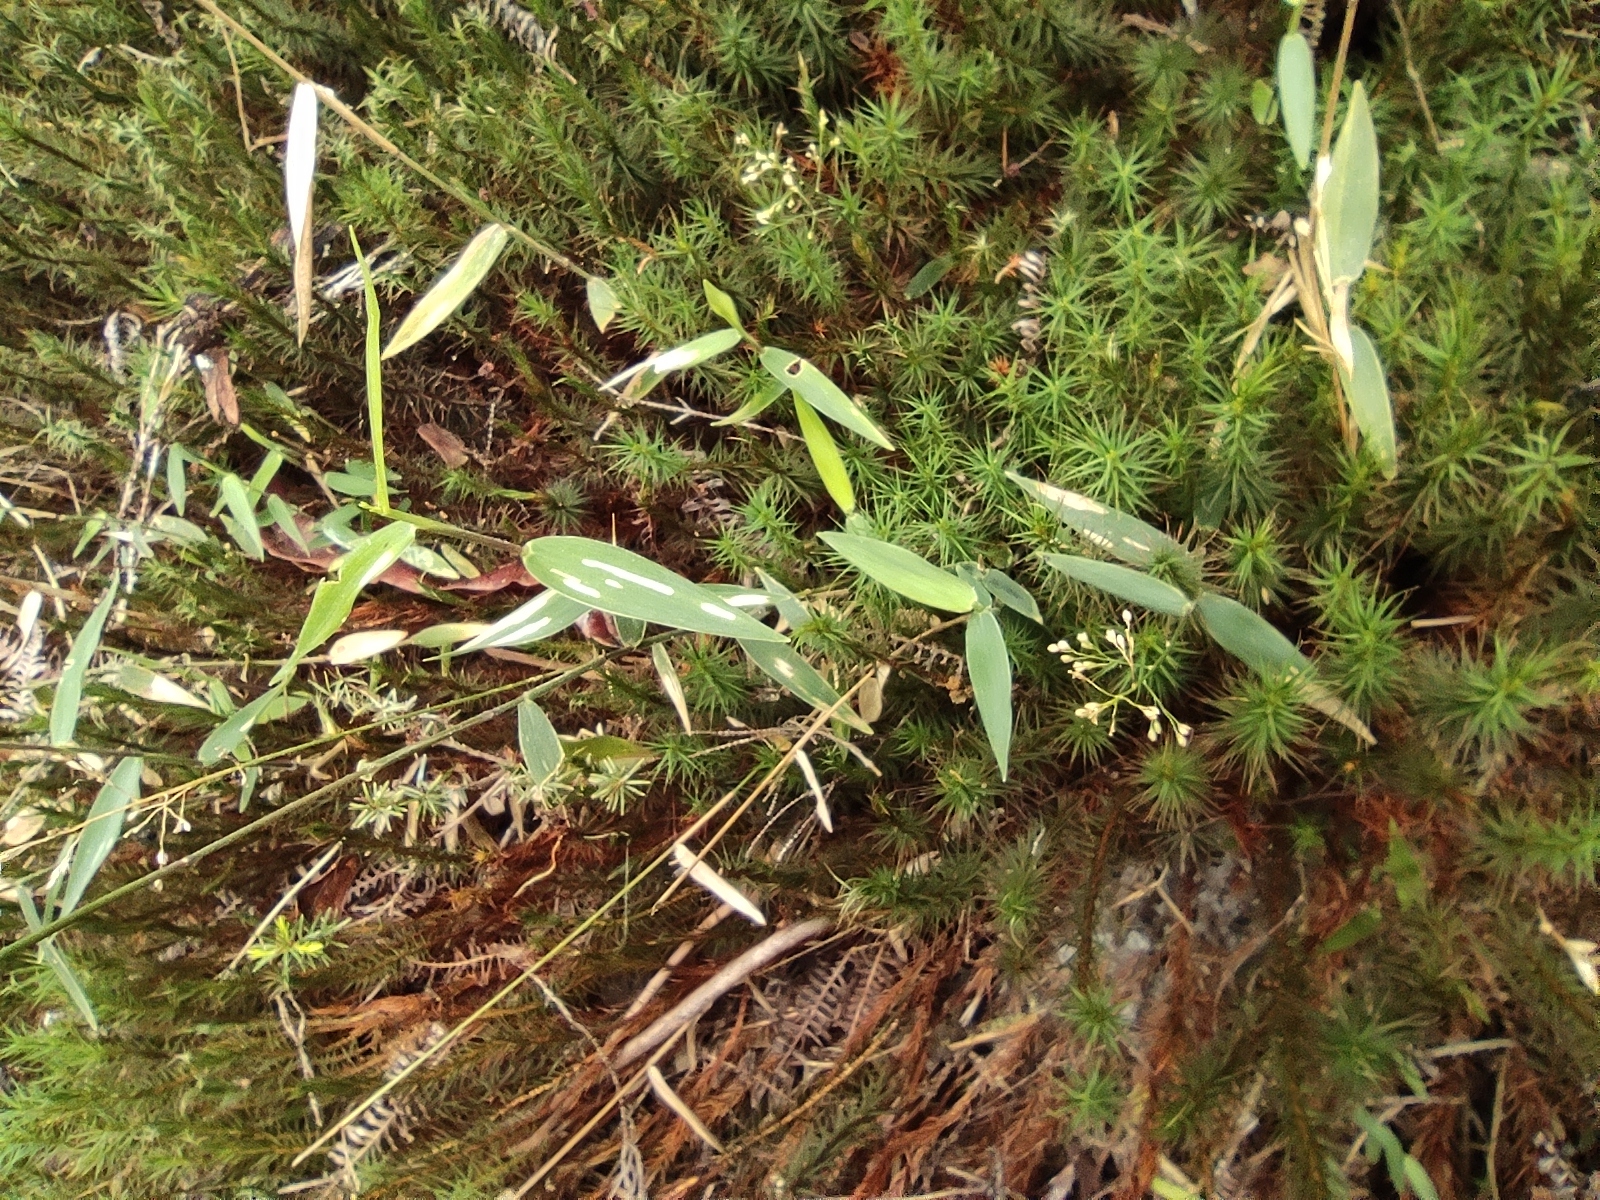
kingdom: Plantae
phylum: Tracheophyta
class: Liliopsida
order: Poales
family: Poaceae
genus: Isachne
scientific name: Isachne homonyma
